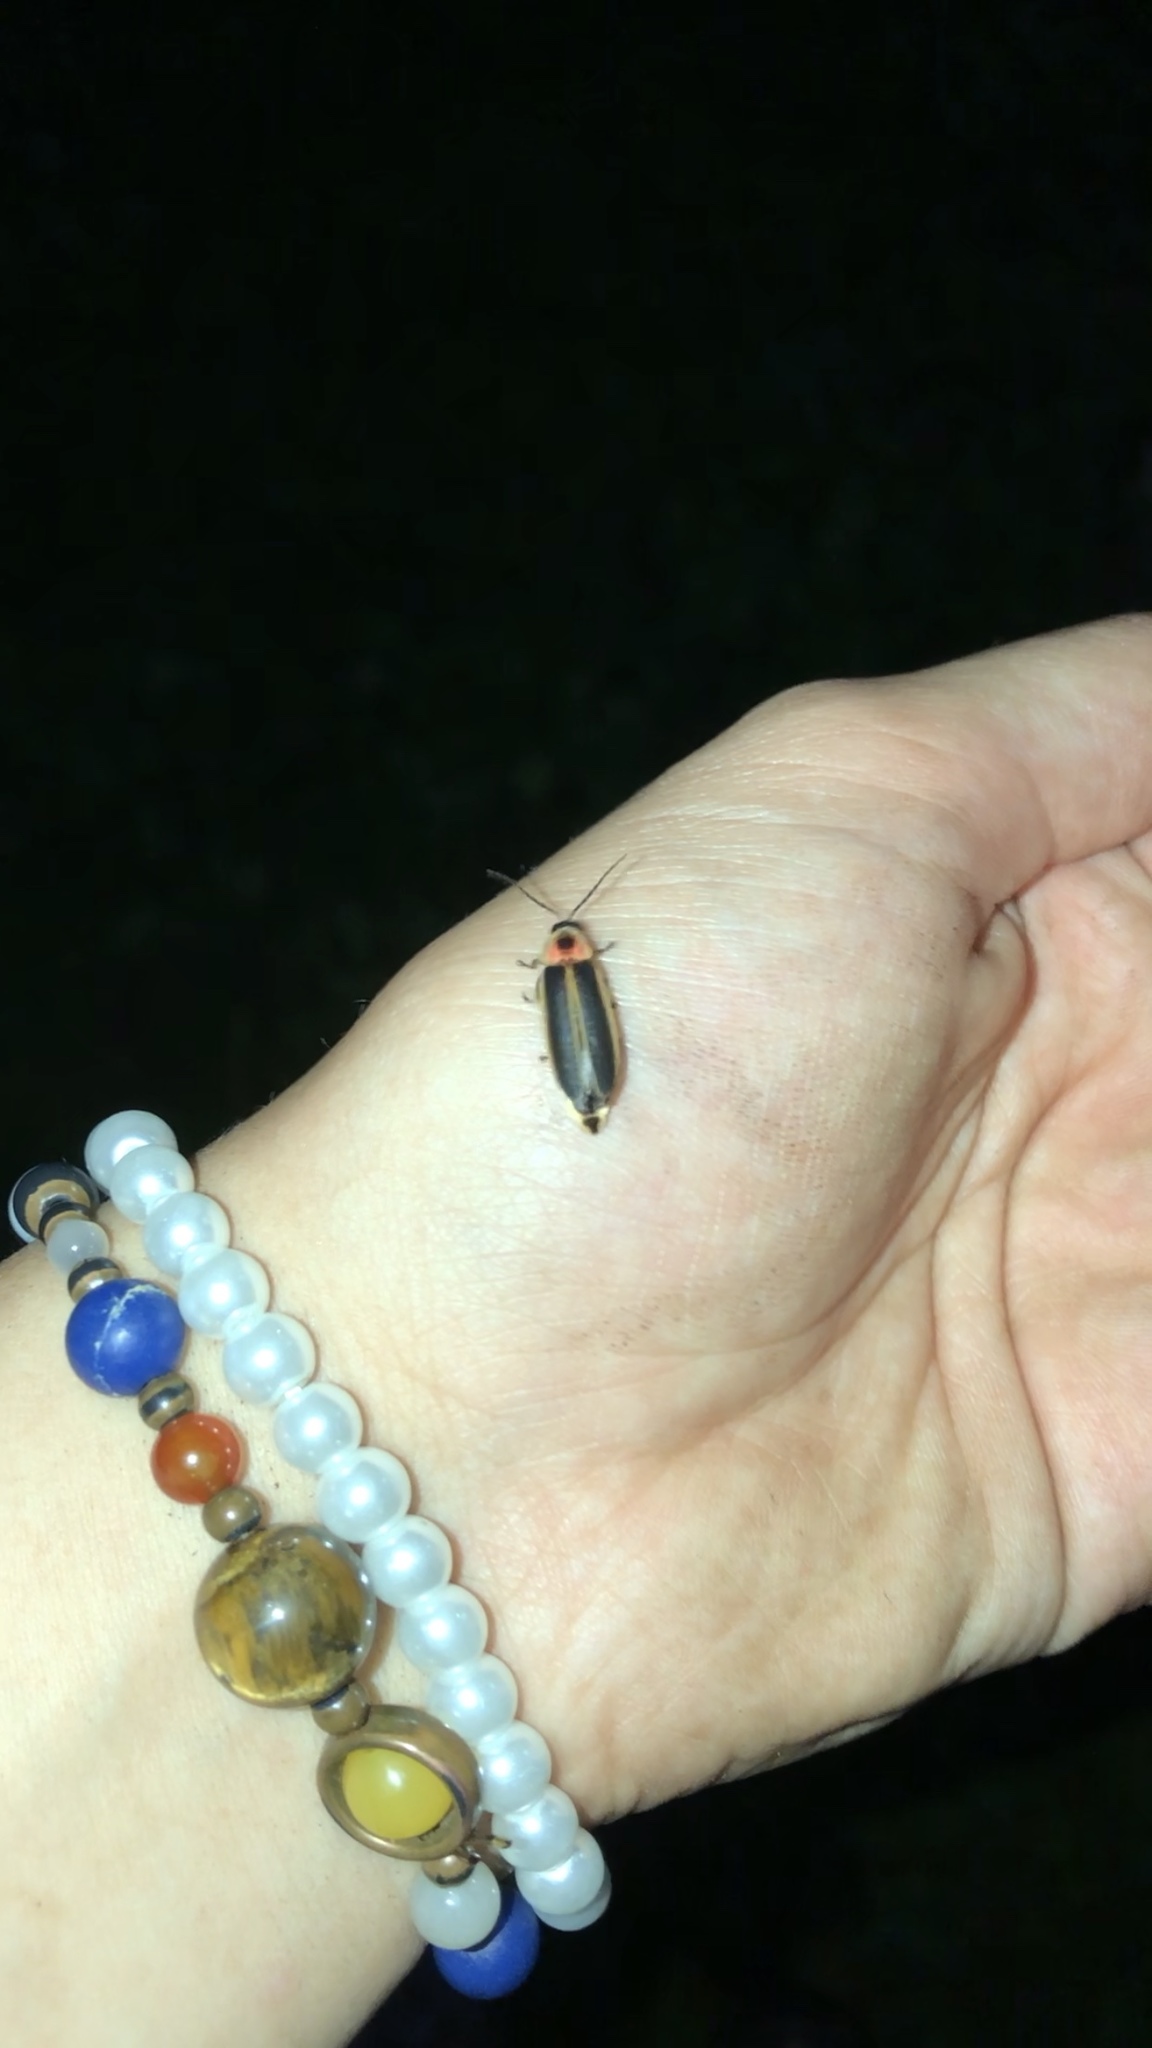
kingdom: Animalia
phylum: Arthropoda
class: Insecta
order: Coleoptera
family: Lampyridae
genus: Photinus
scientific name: Photinus pyralis
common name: Big dipper firefly
